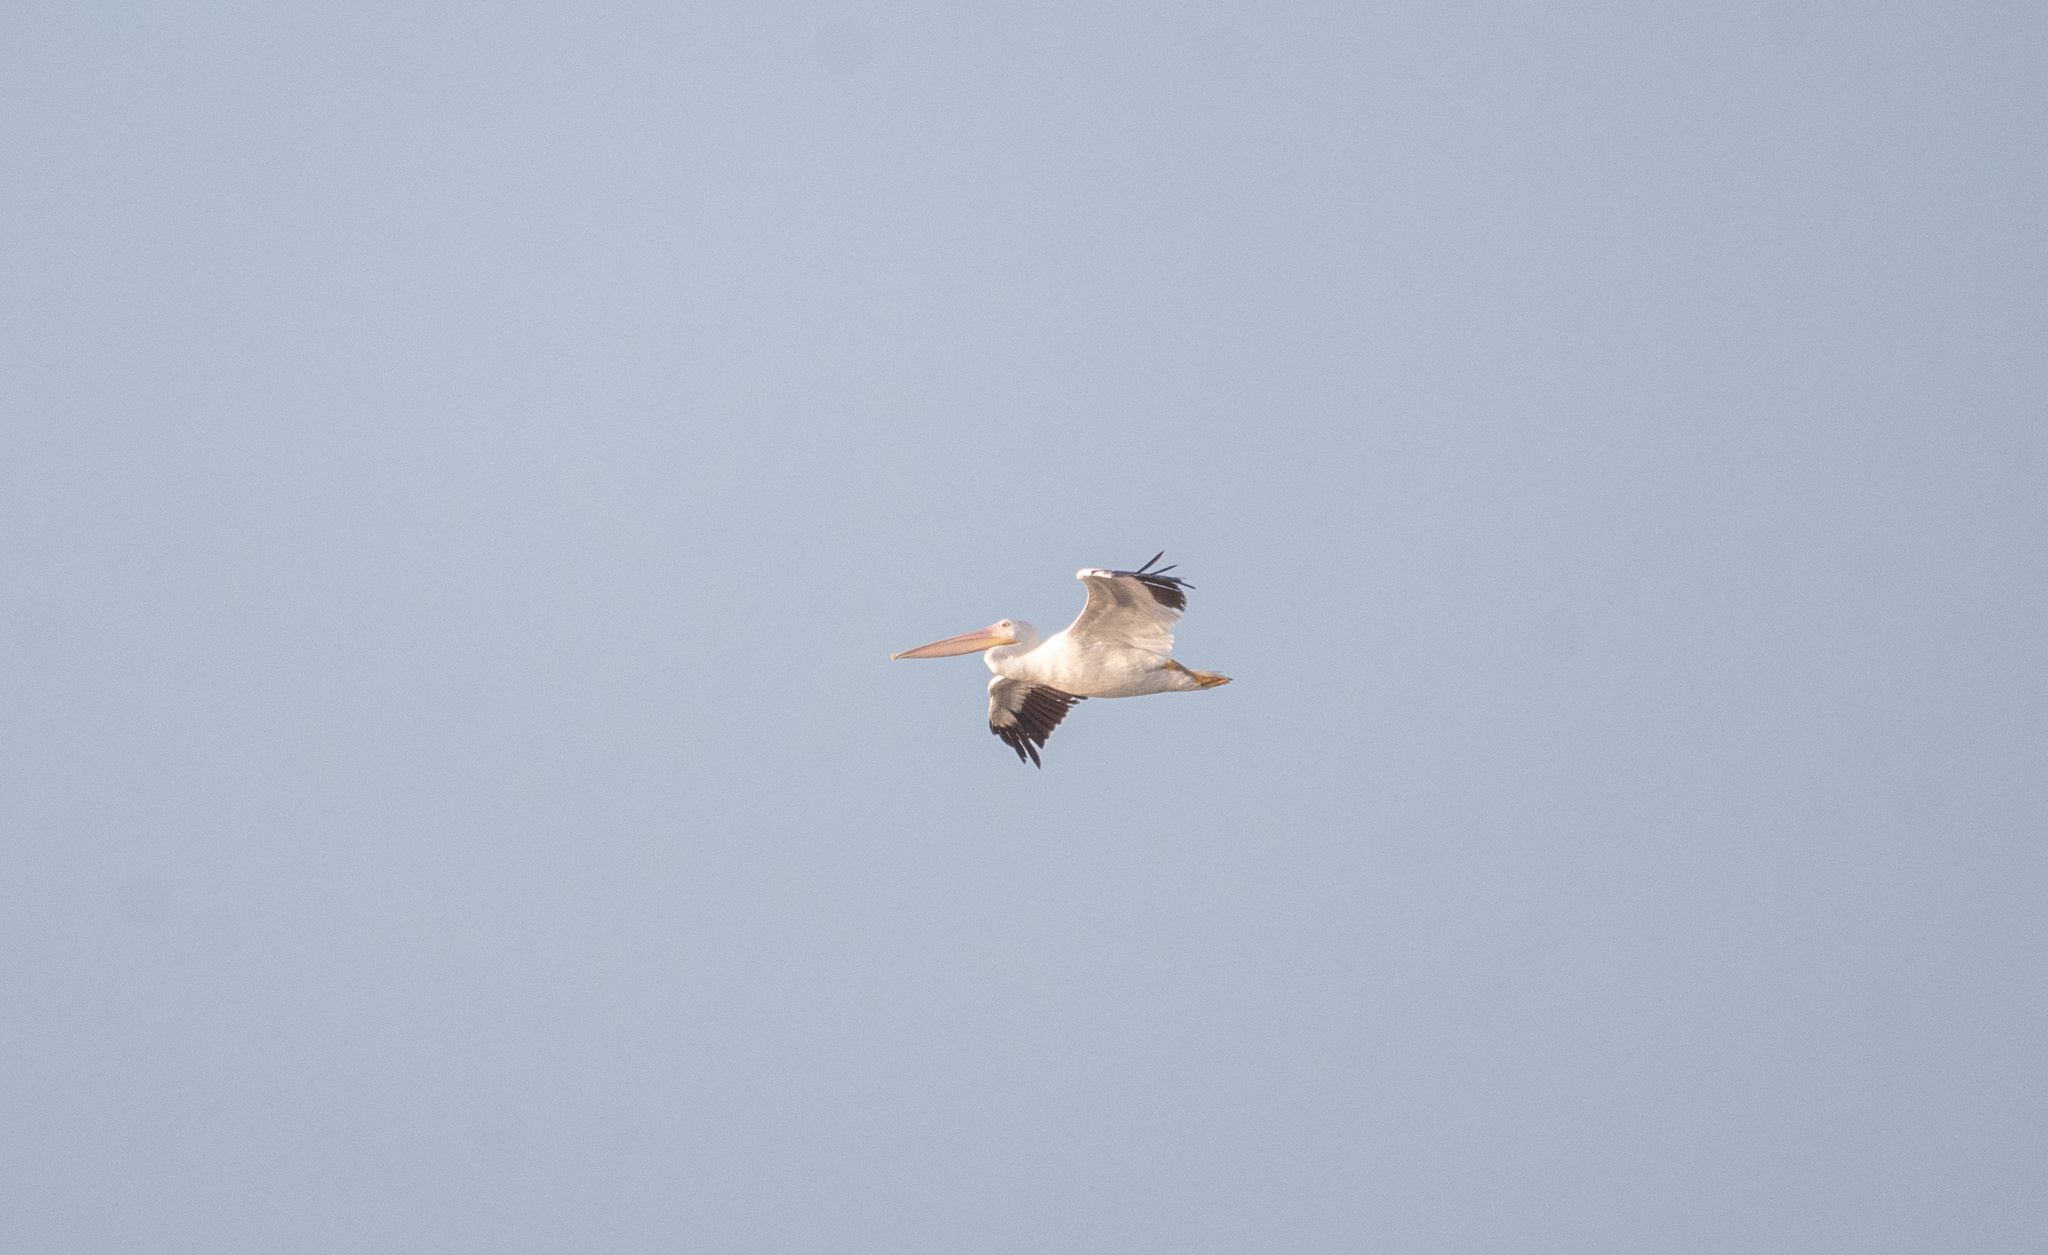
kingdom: Animalia
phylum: Chordata
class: Aves
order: Pelecaniformes
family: Pelecanidae
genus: Pelecanus
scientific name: Pelecanus erythrorhynchos
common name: American white pelican
